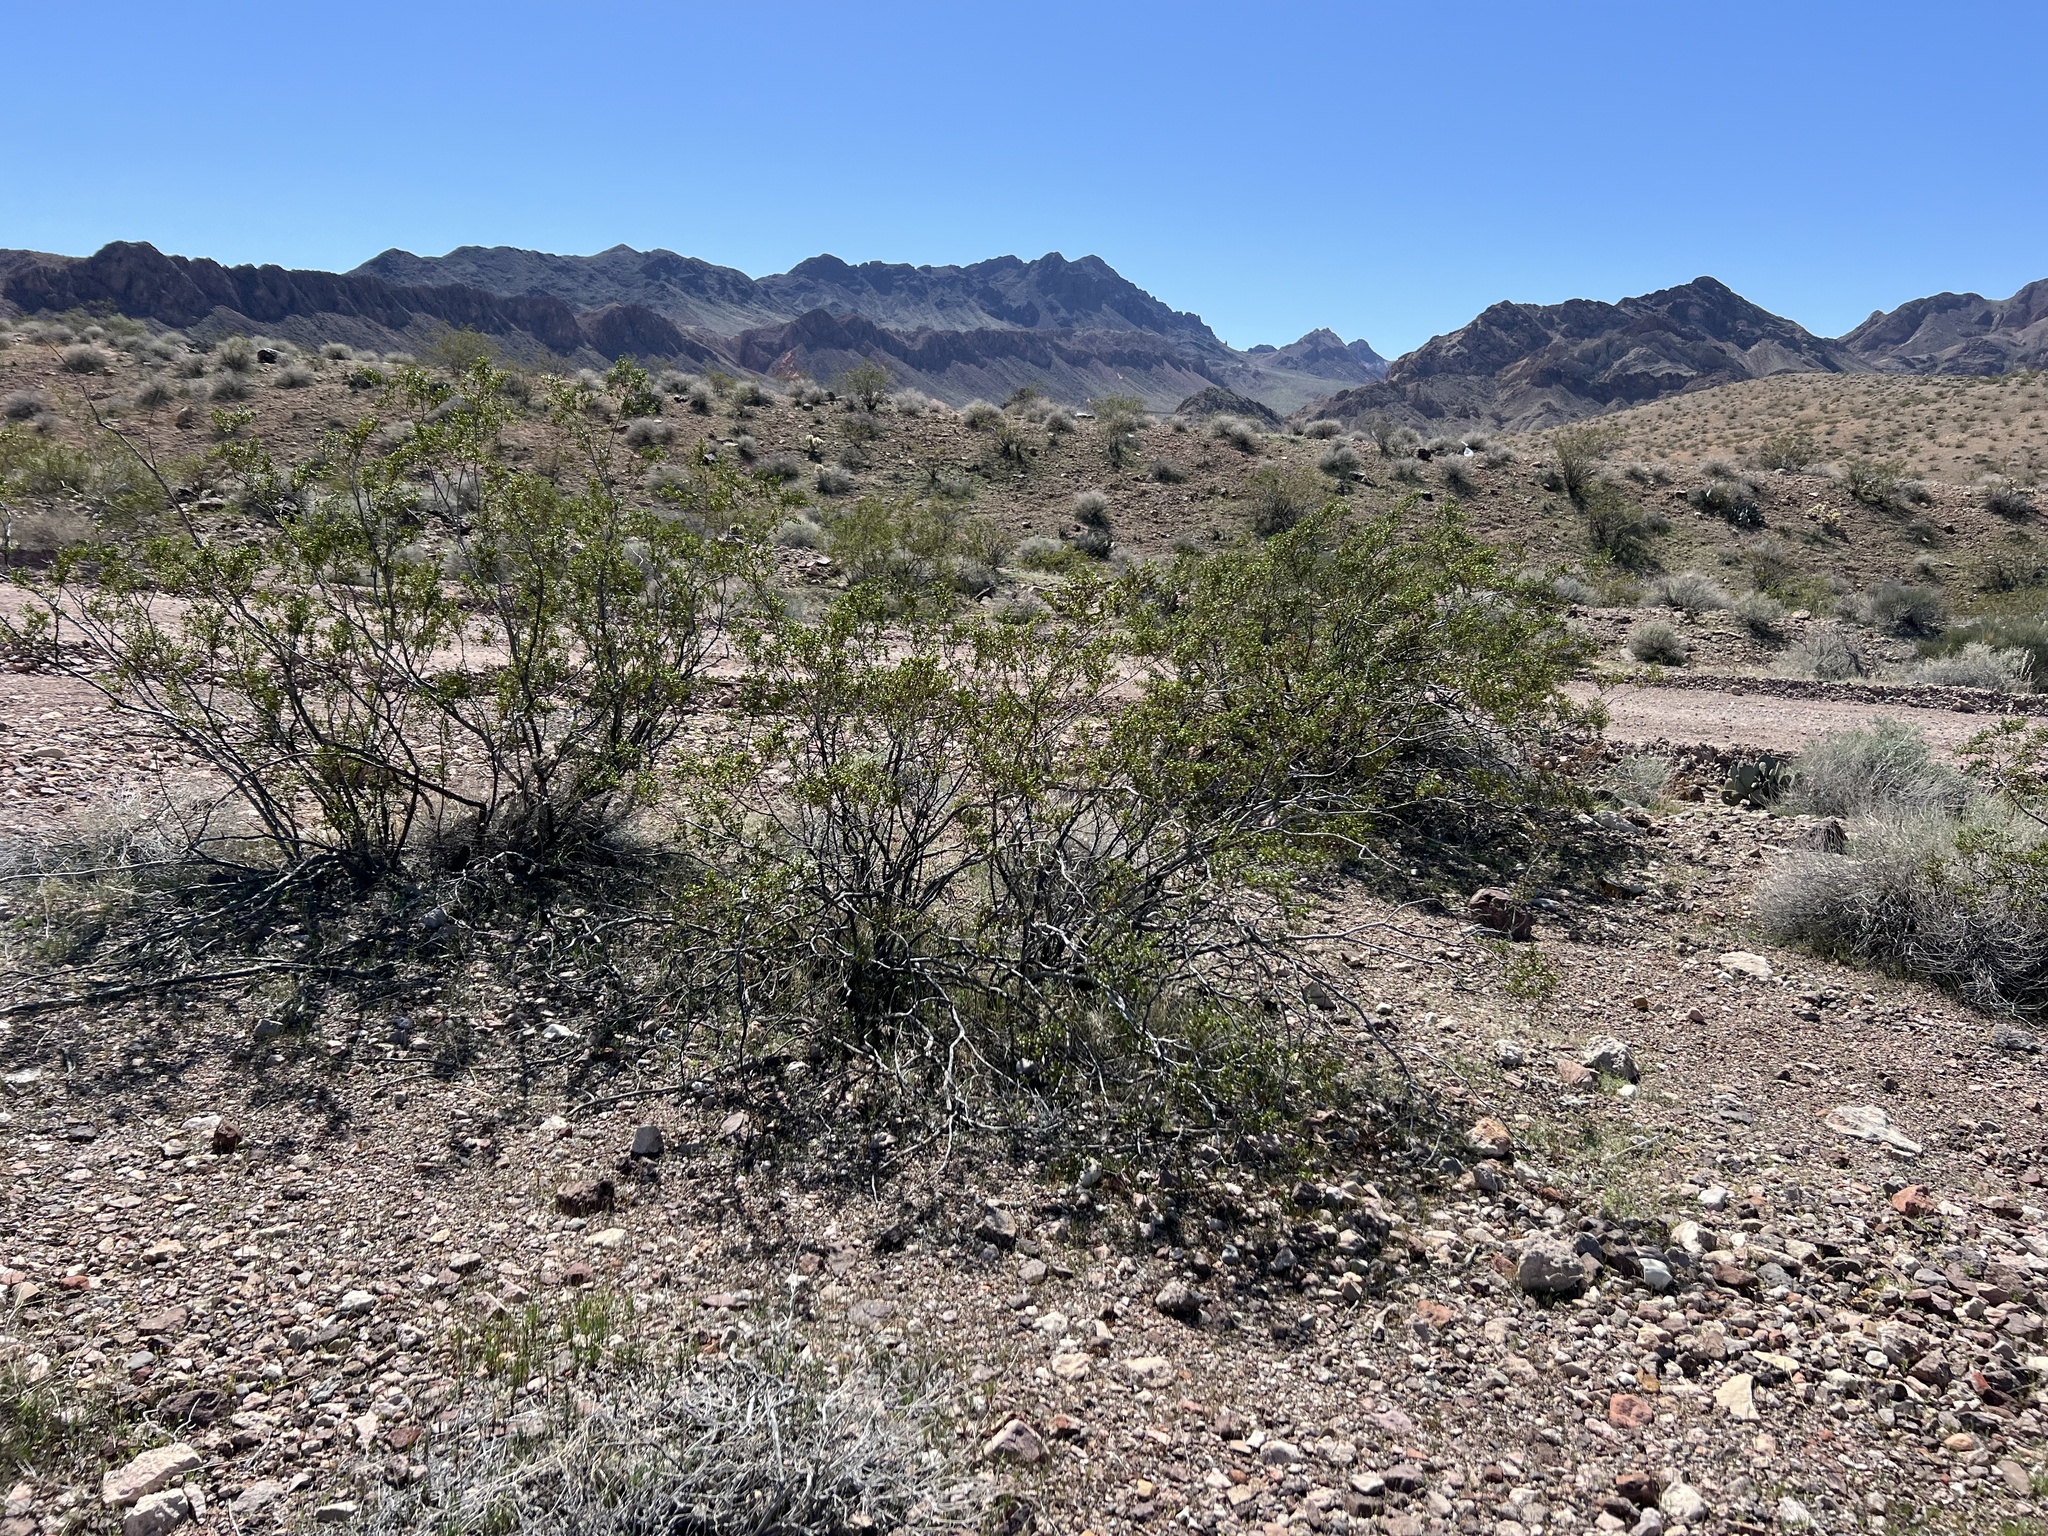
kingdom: Plantae
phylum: Tracheophyta
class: Magnoliopsida
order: Zygophyllales
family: Zygophyllaceae
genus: Larrea
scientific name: Larrea tridentata
